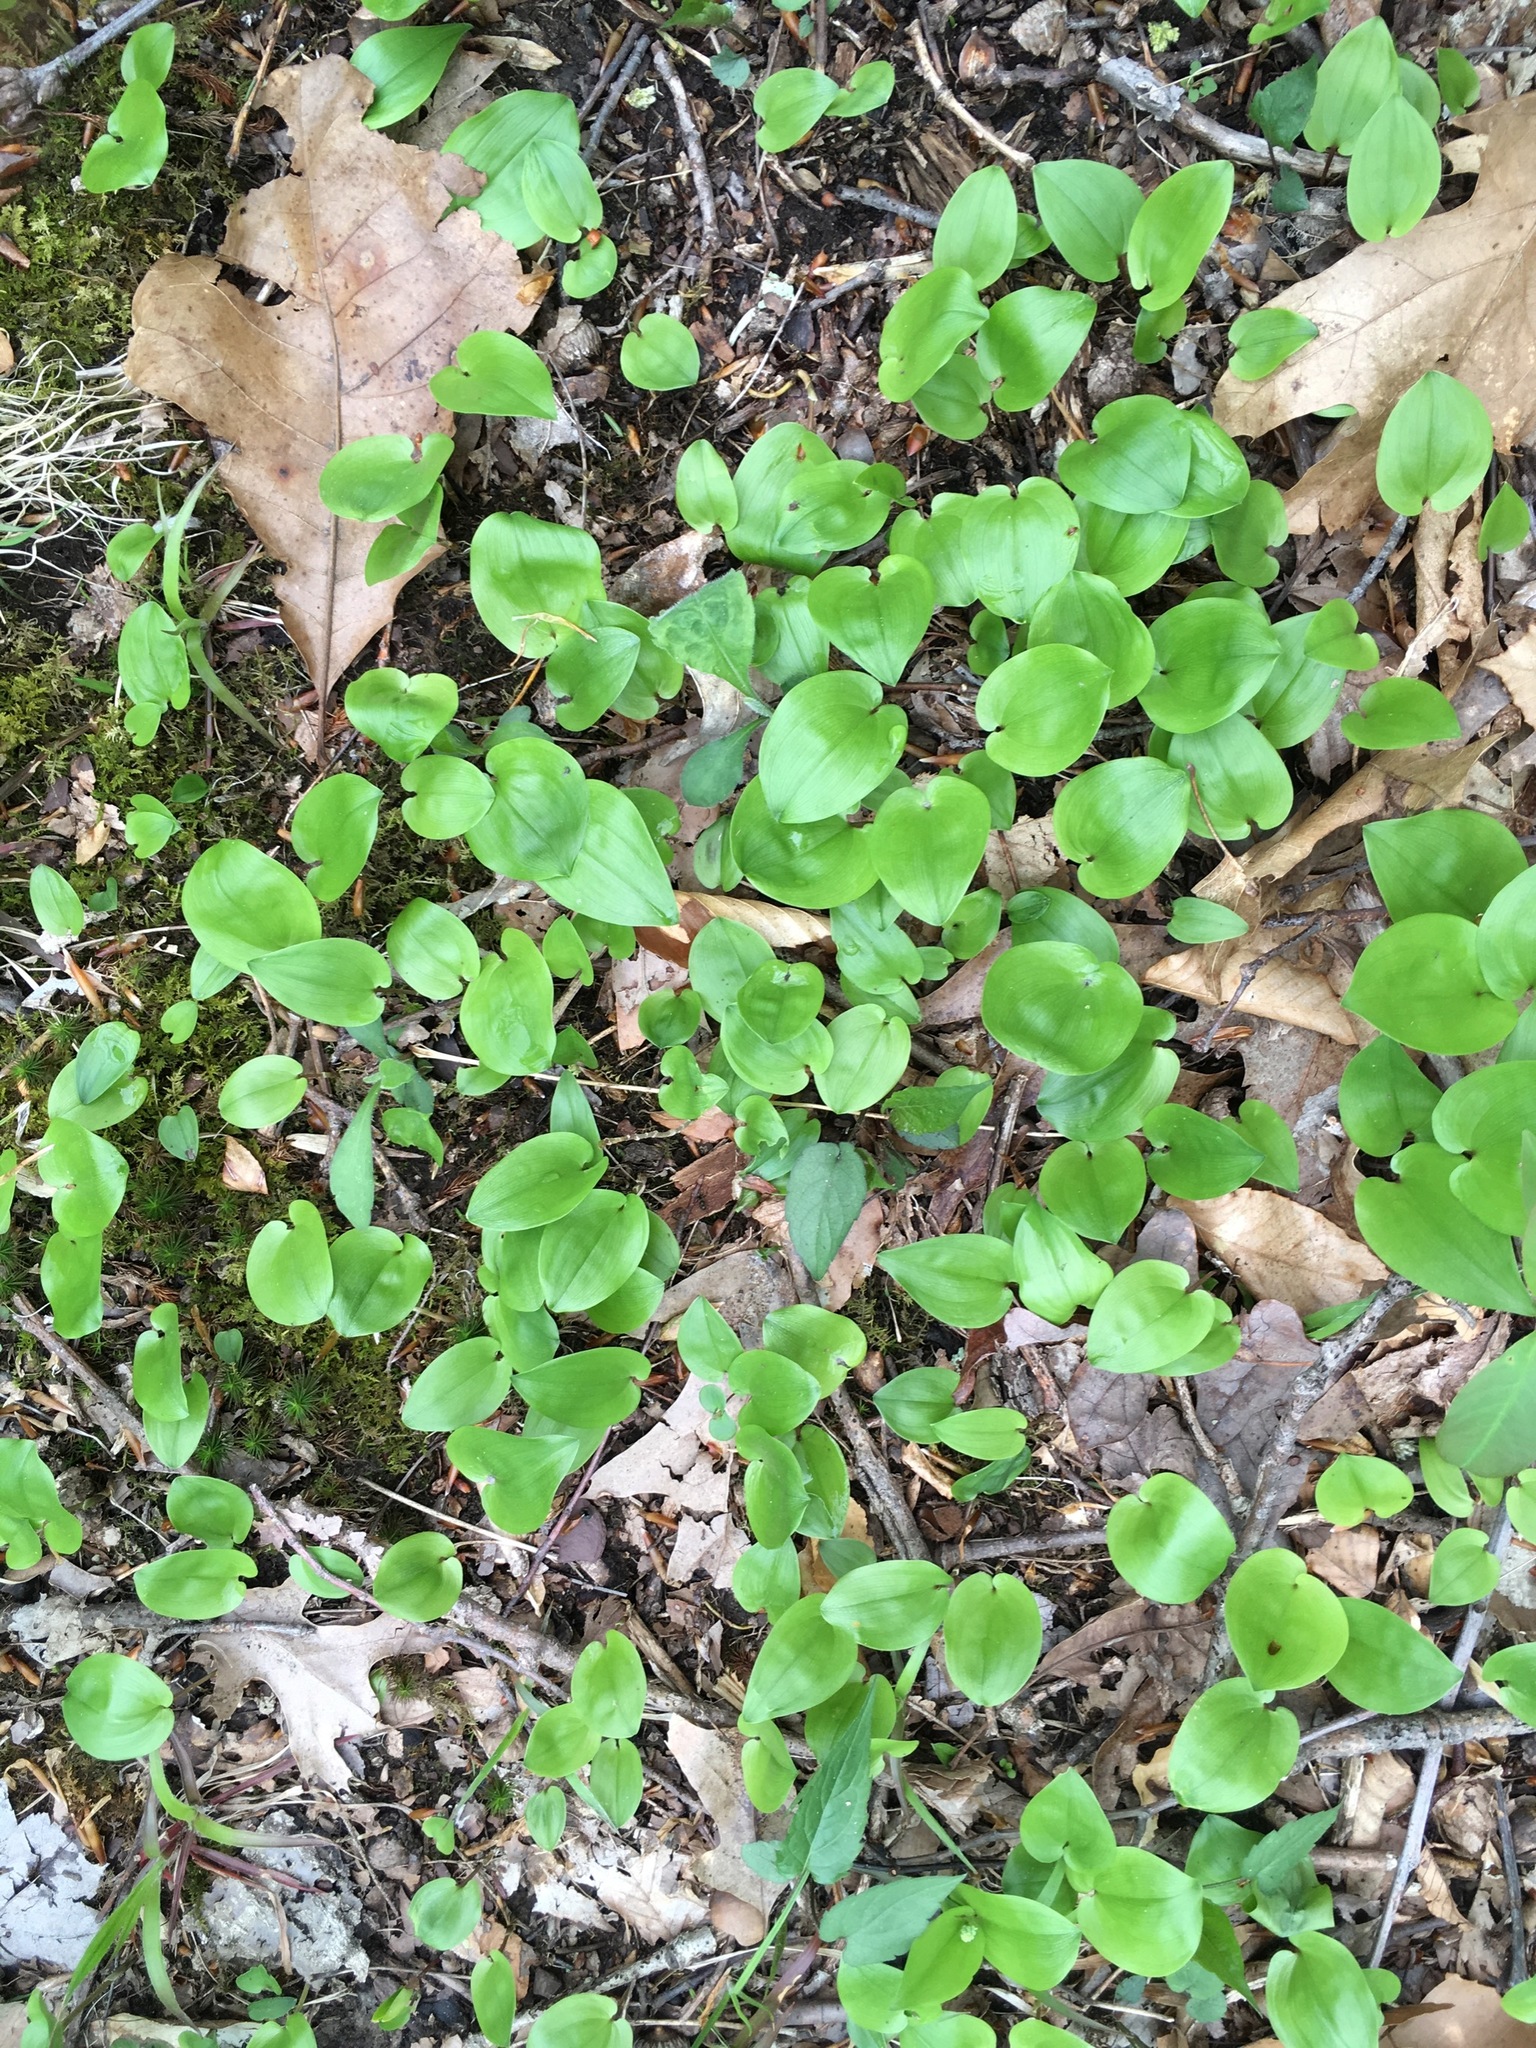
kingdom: Plantae
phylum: Tracheophyta
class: Liliopsida
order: Asparagales
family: Asparagaceae
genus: Maianthemum
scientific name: Maianthemum canadense
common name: False lily-of-the-valley
